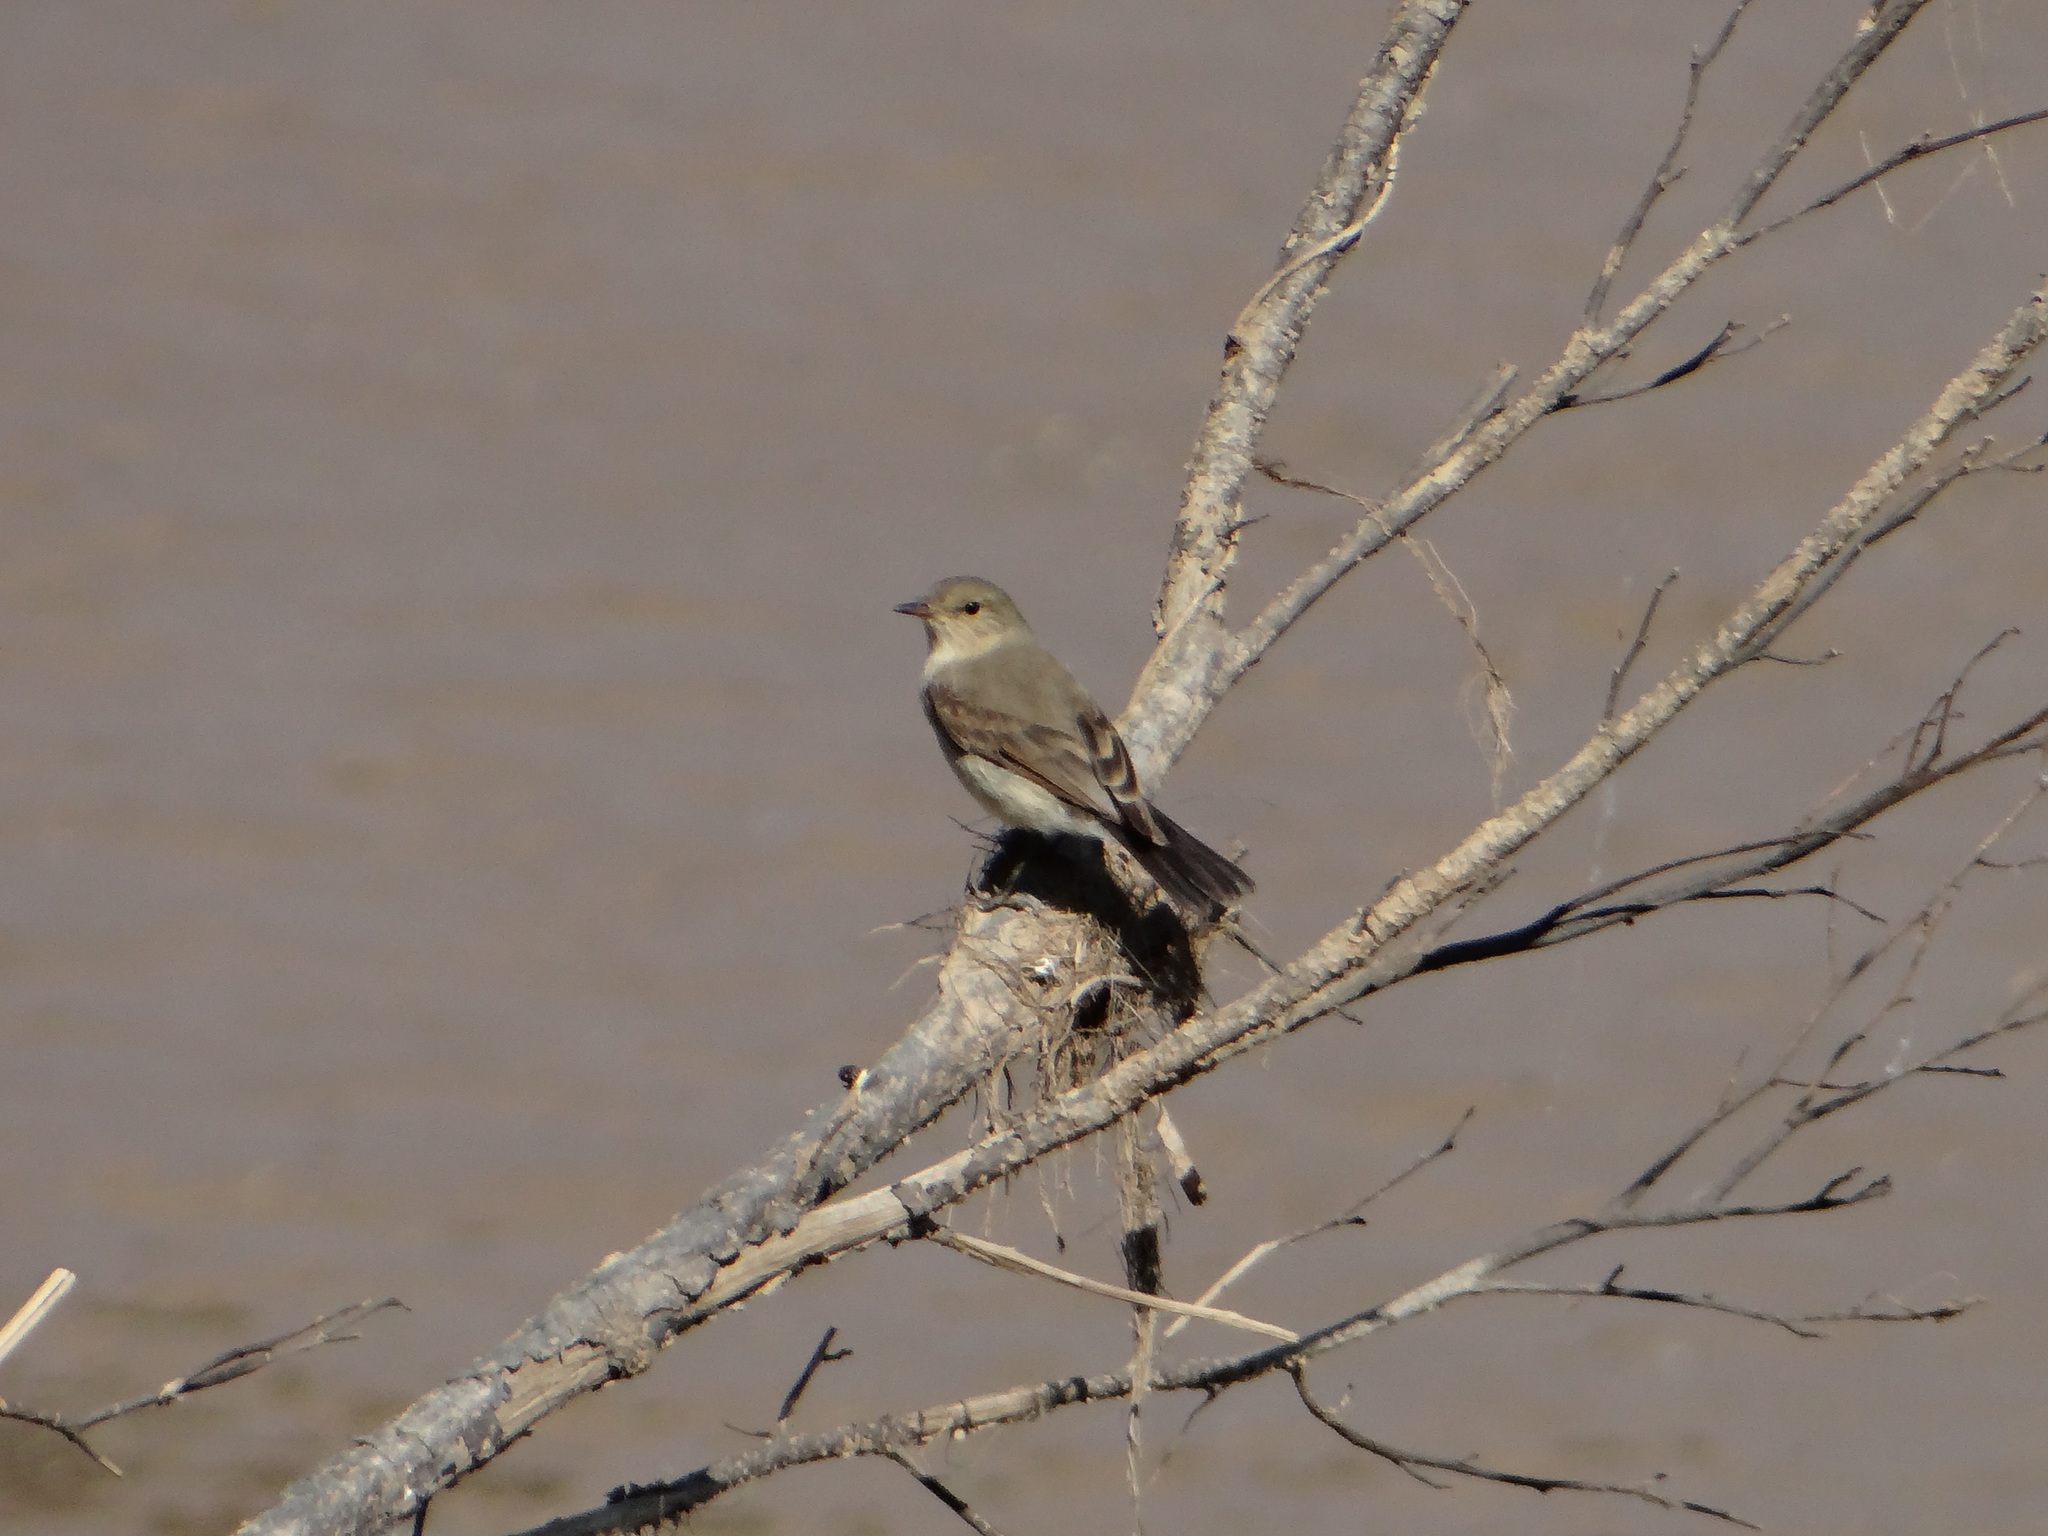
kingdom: Animalia
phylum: Chordata
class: Aves
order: Passeriformes
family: Tyrannidae
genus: Muscisaxicola
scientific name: Muscisaxicola fluviatilis
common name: Little ground tyrant
